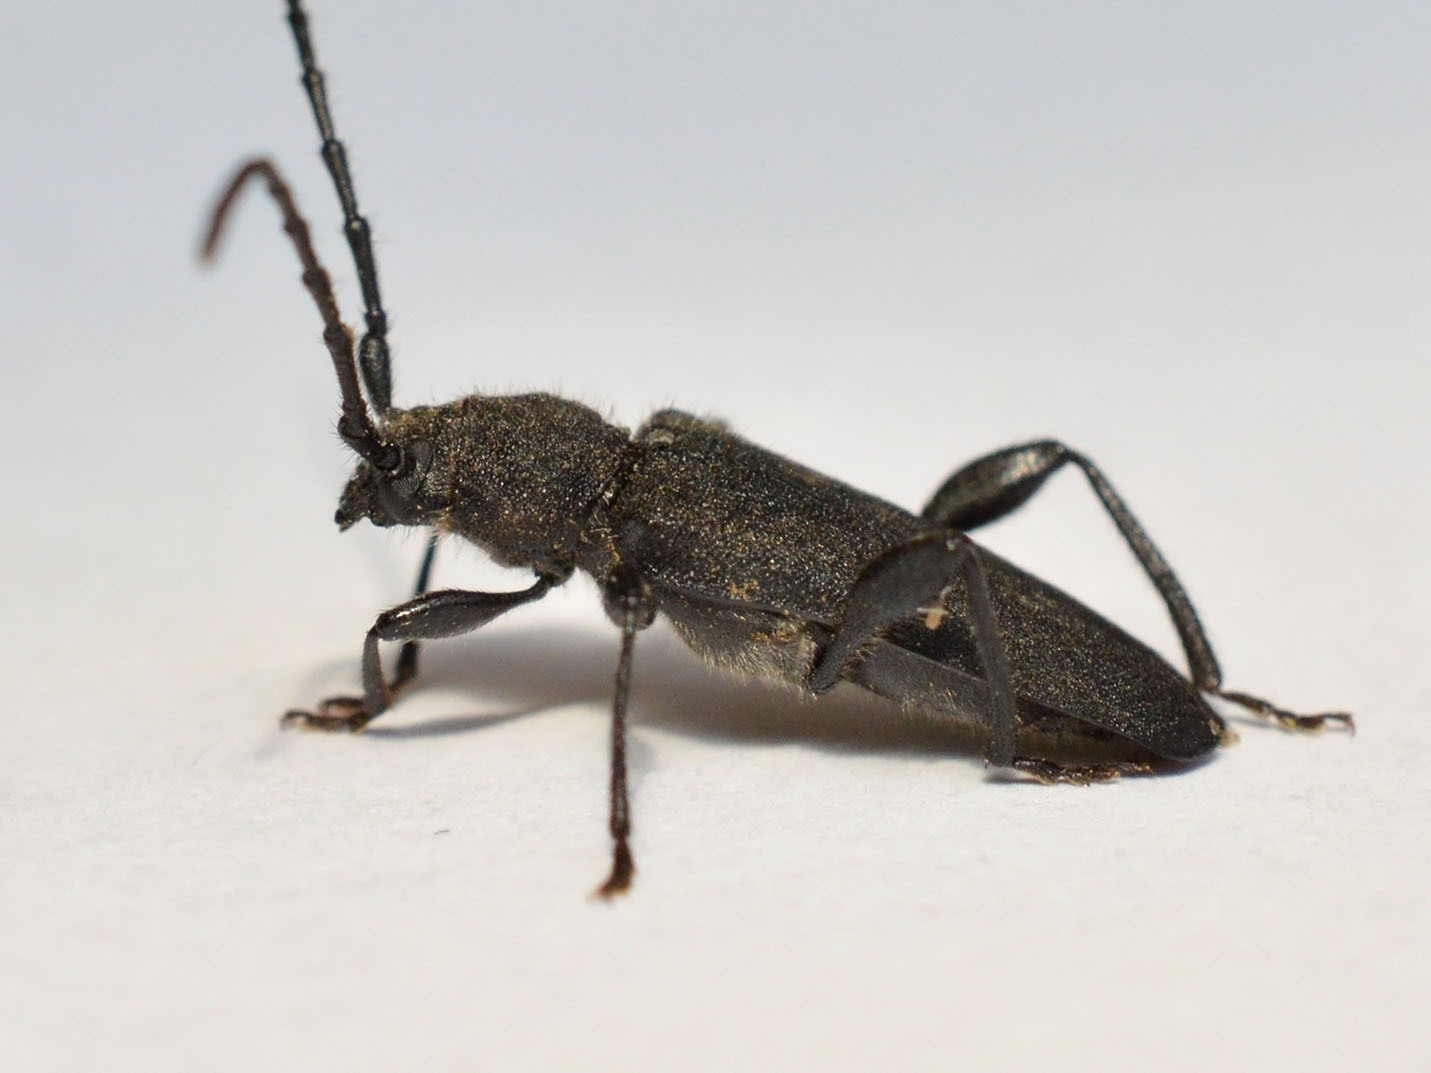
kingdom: Animalia
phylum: Arthropoda
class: Insecta
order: Coleoptera
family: Cerambycidae
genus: Ropalopus
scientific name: Ropalopus macropus
